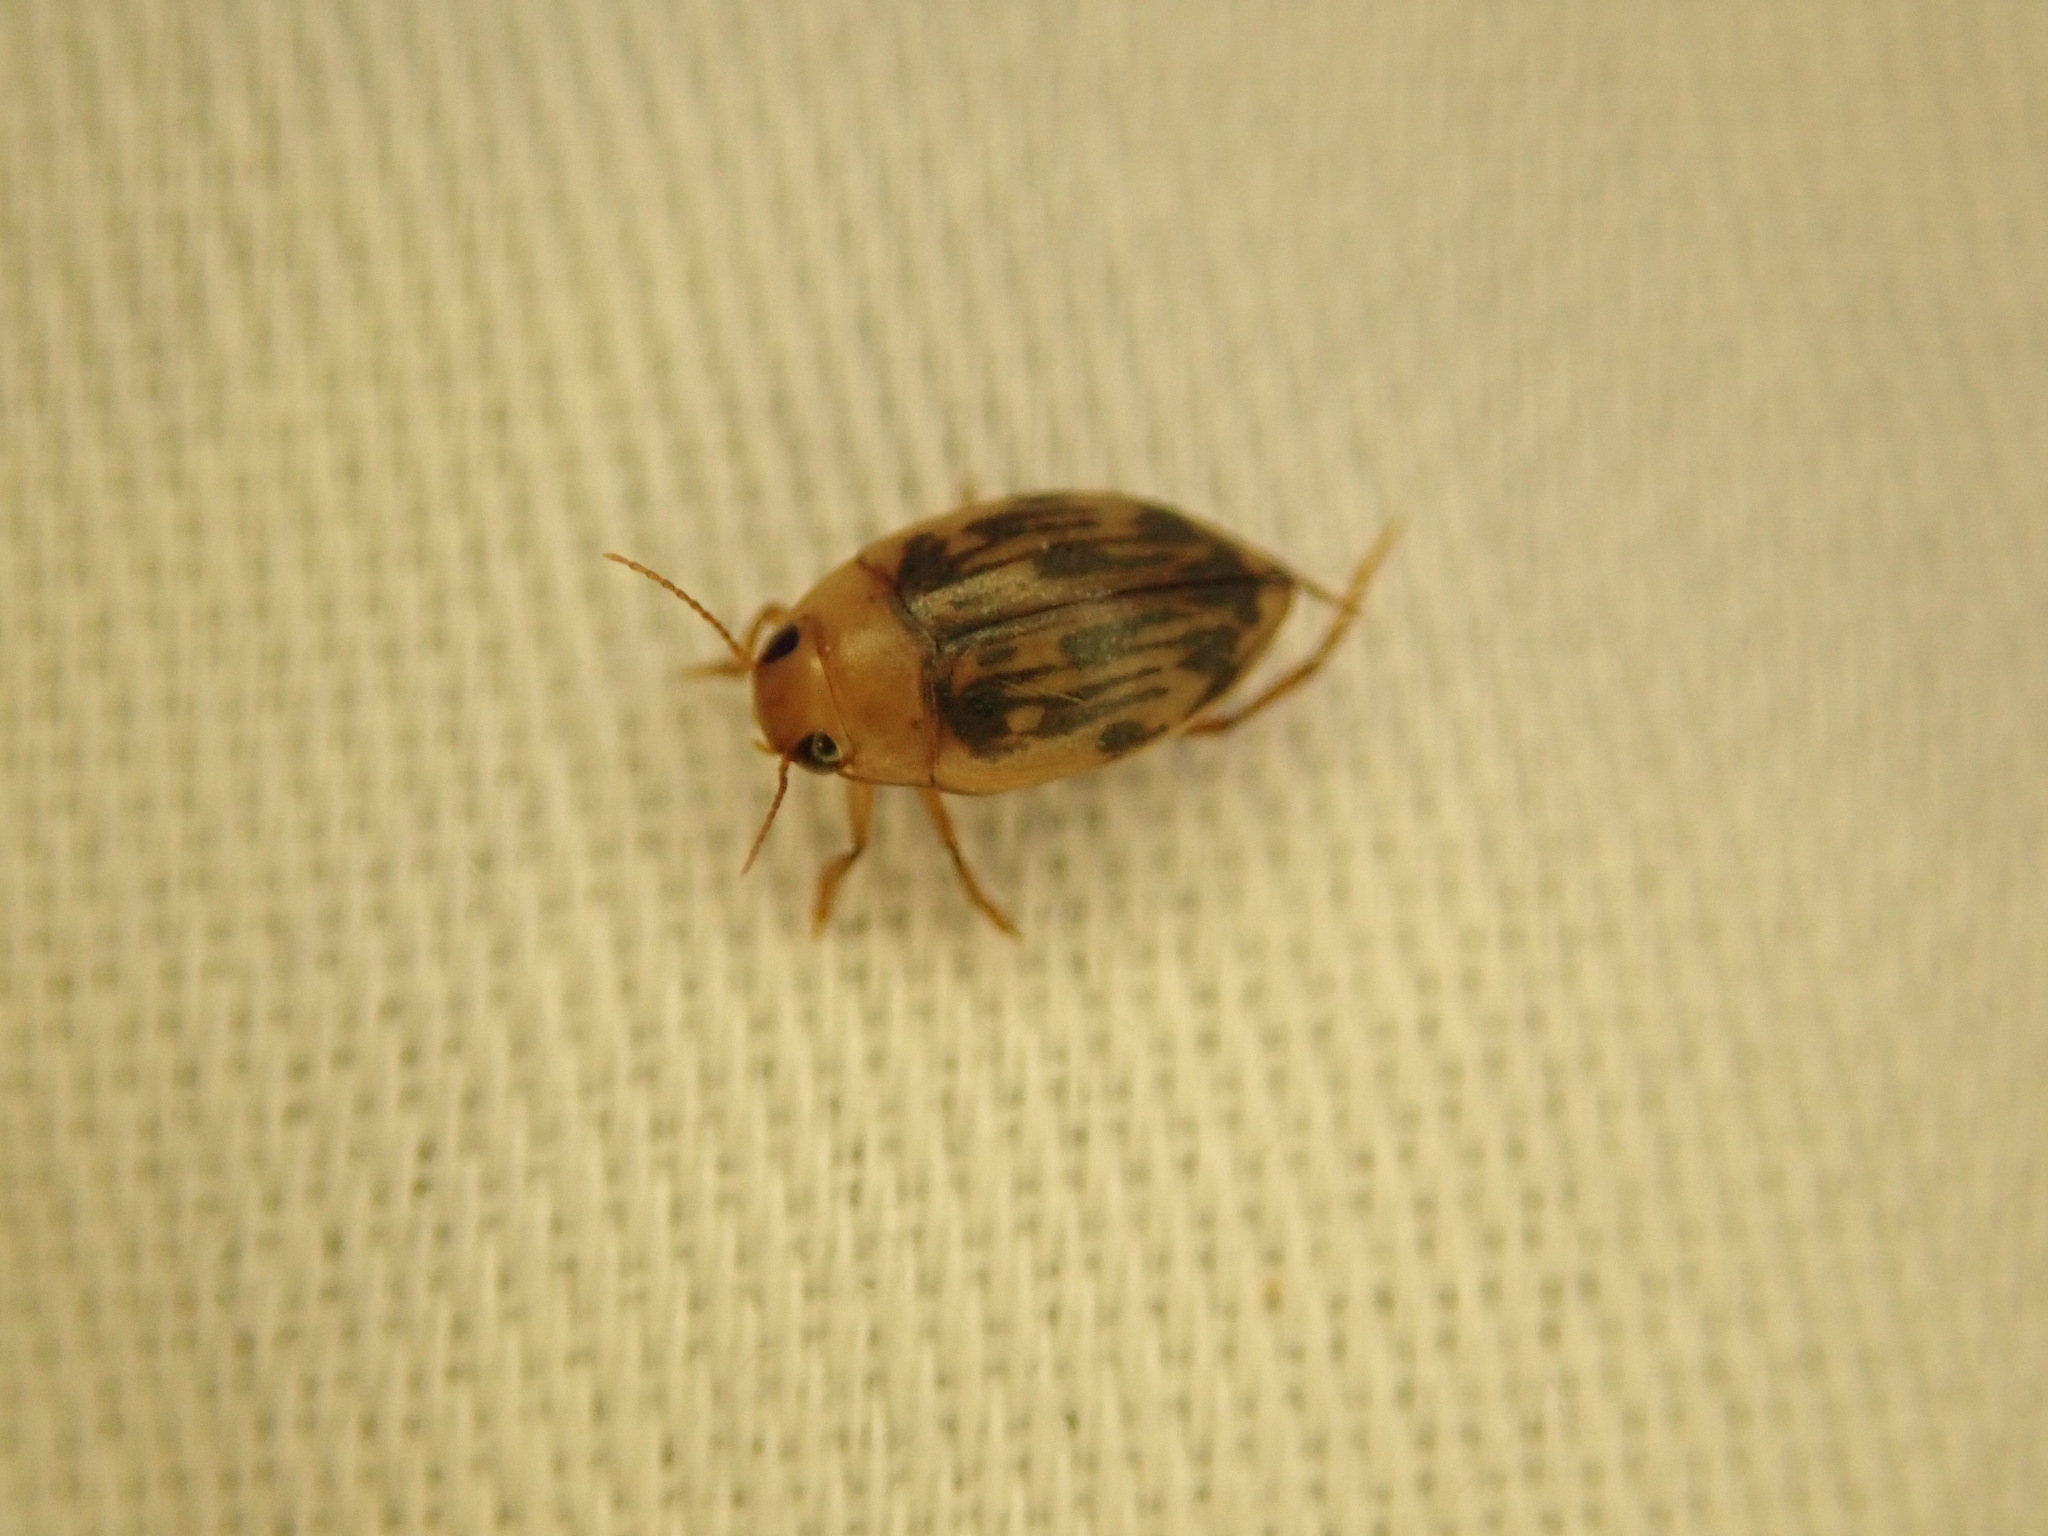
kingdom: Animalia
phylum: Arthropoda
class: Insecta
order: Coleoptera
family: Dytiscidae
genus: Neoporus
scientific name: Neoporus dimidiatus
